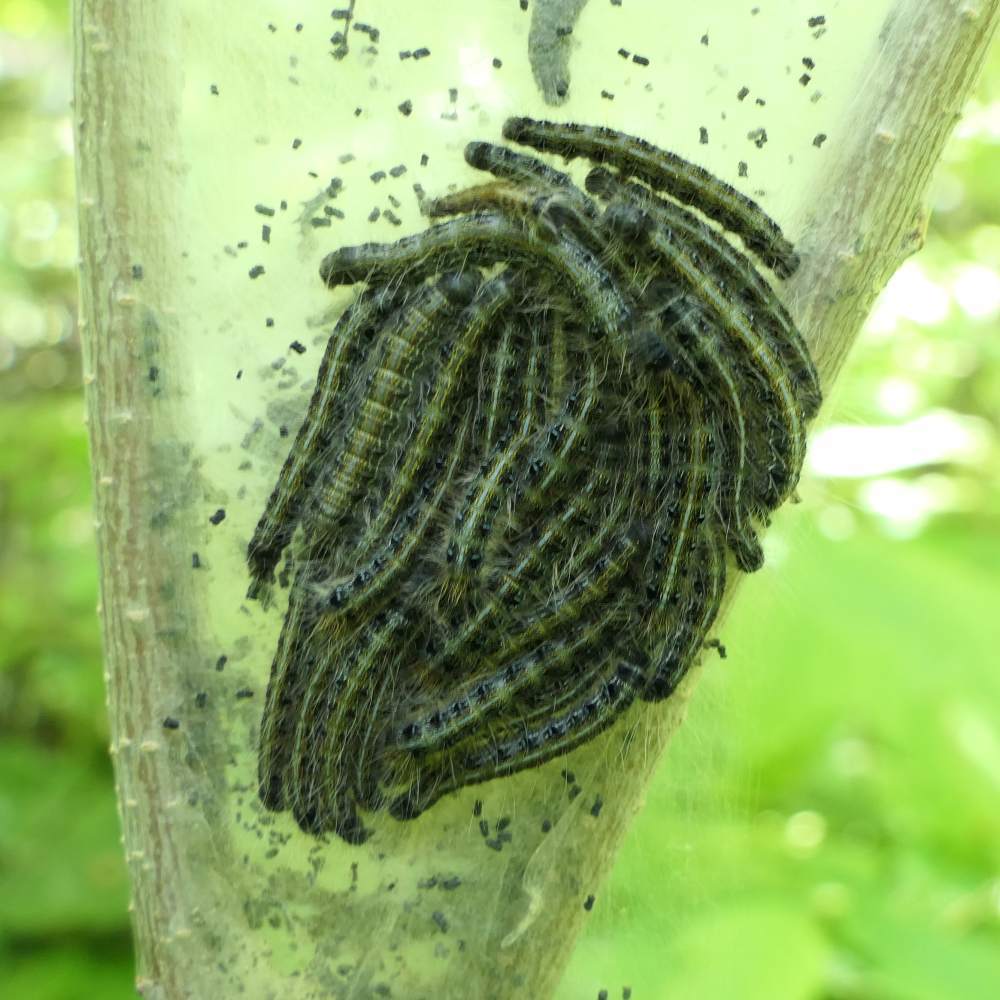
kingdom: Animalia
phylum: Arthropoda
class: Insecta
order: Lepidoptera
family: Lasiocampidae
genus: Malacosoma
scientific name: Malacosoma americana
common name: Eastern tent caterpillar moth
